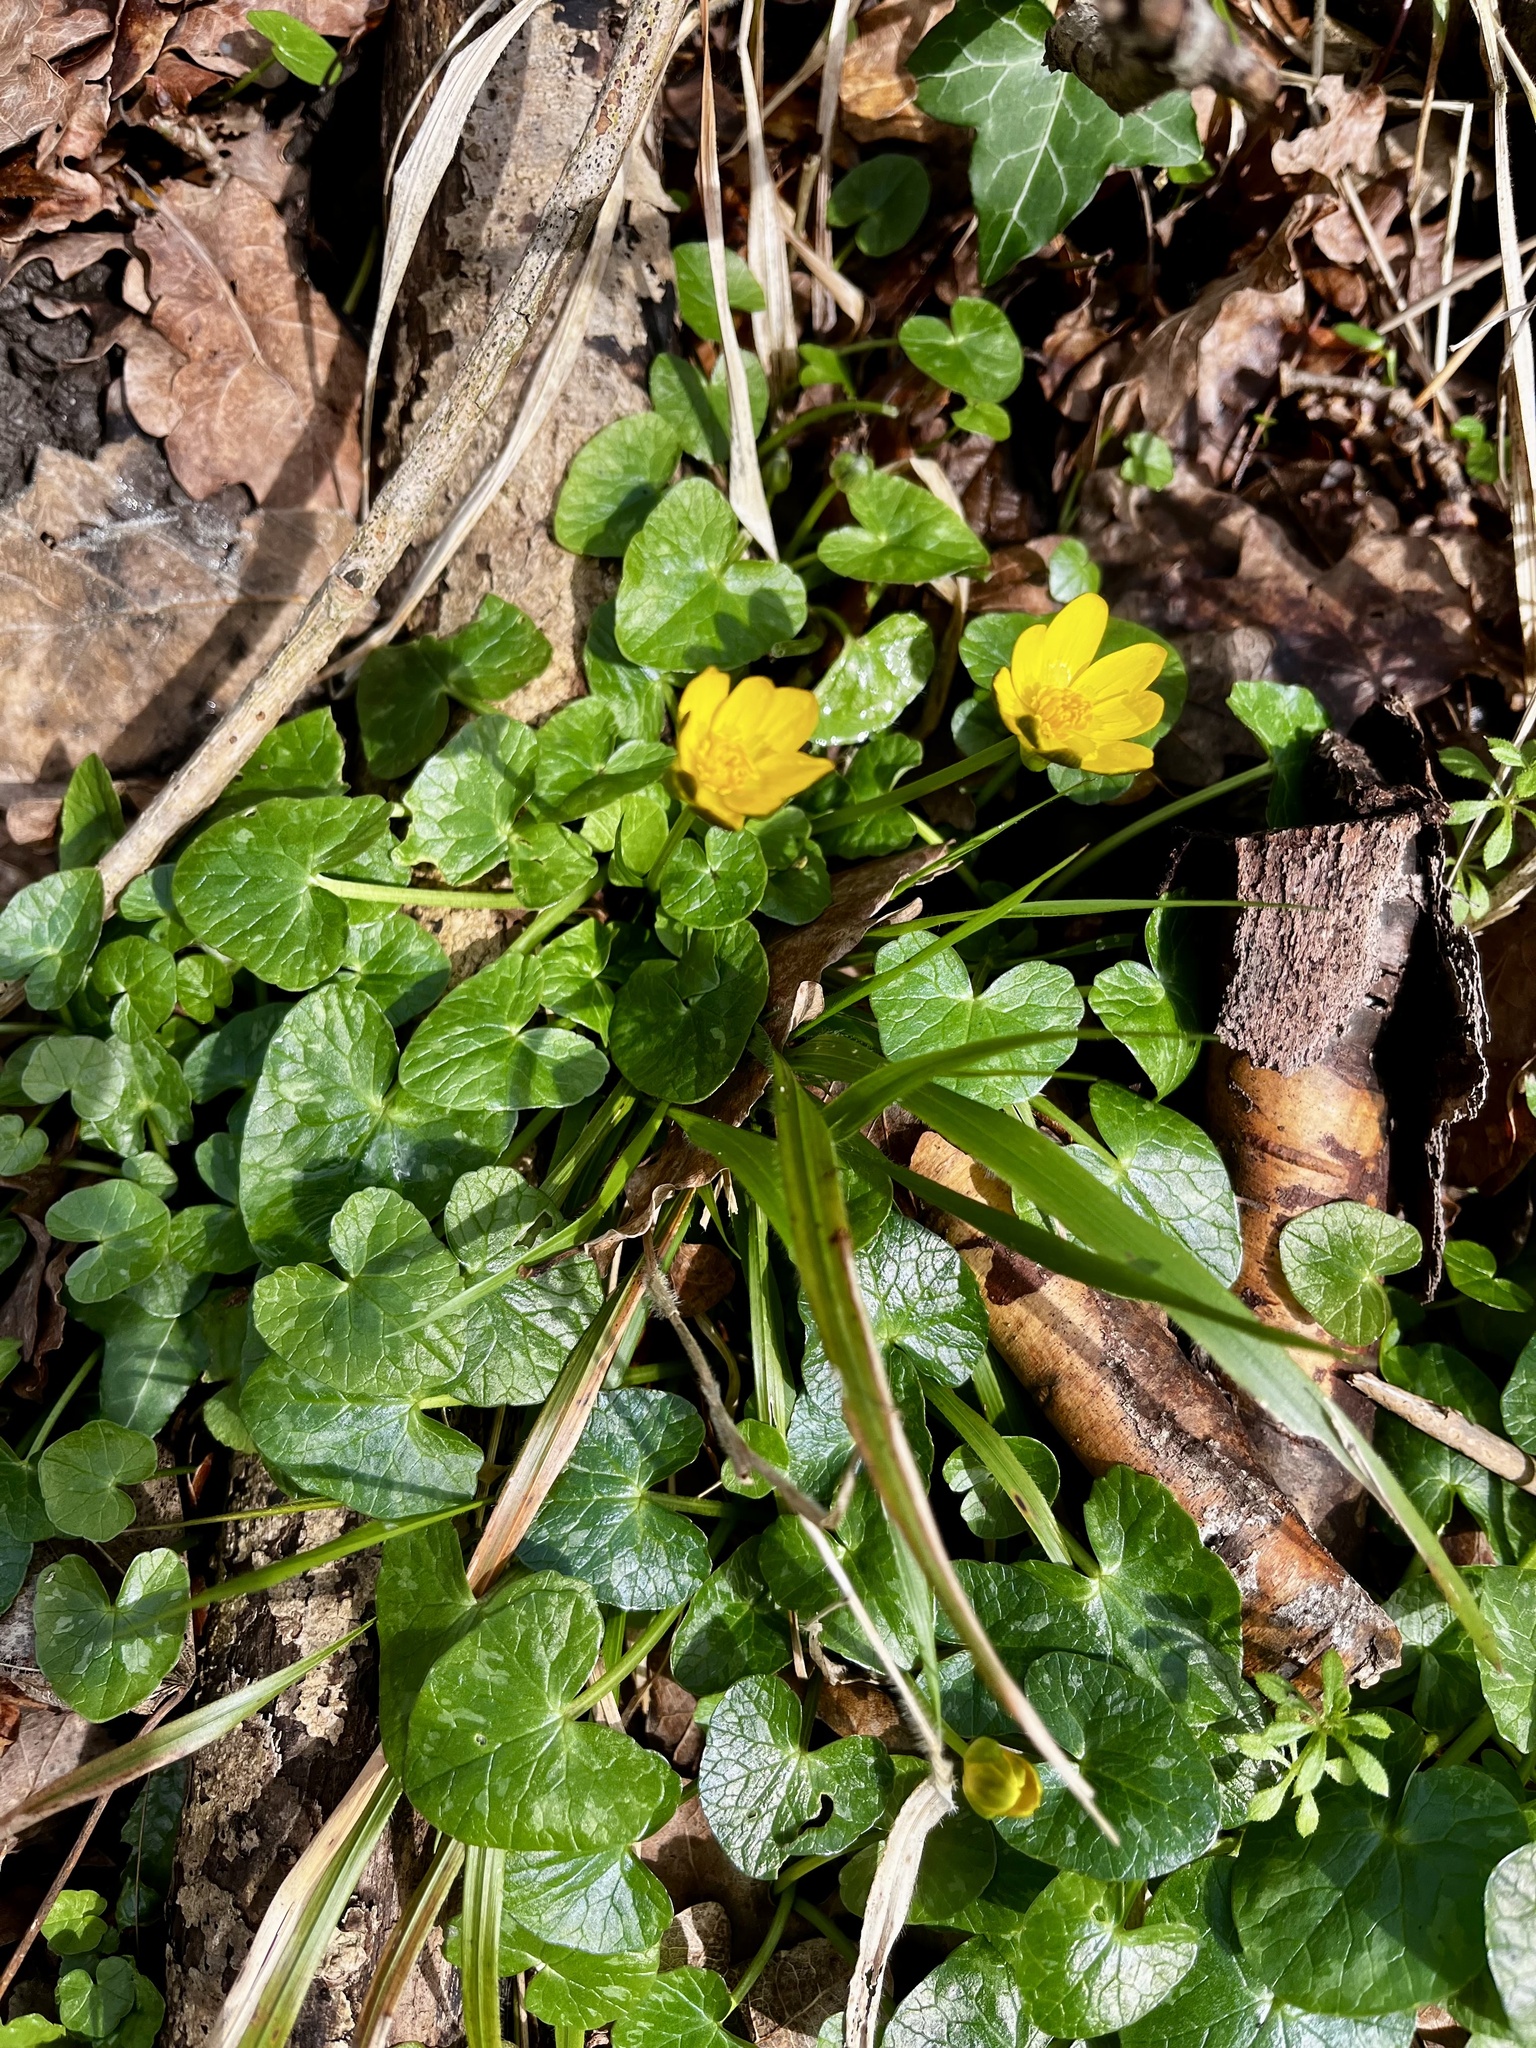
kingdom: Plantae
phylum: Tracheophyta
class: Magnoliopsida
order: Ranunculales
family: Ranunculaceae
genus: Ficaria
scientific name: Ficaria verna
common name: Lesser celandine
